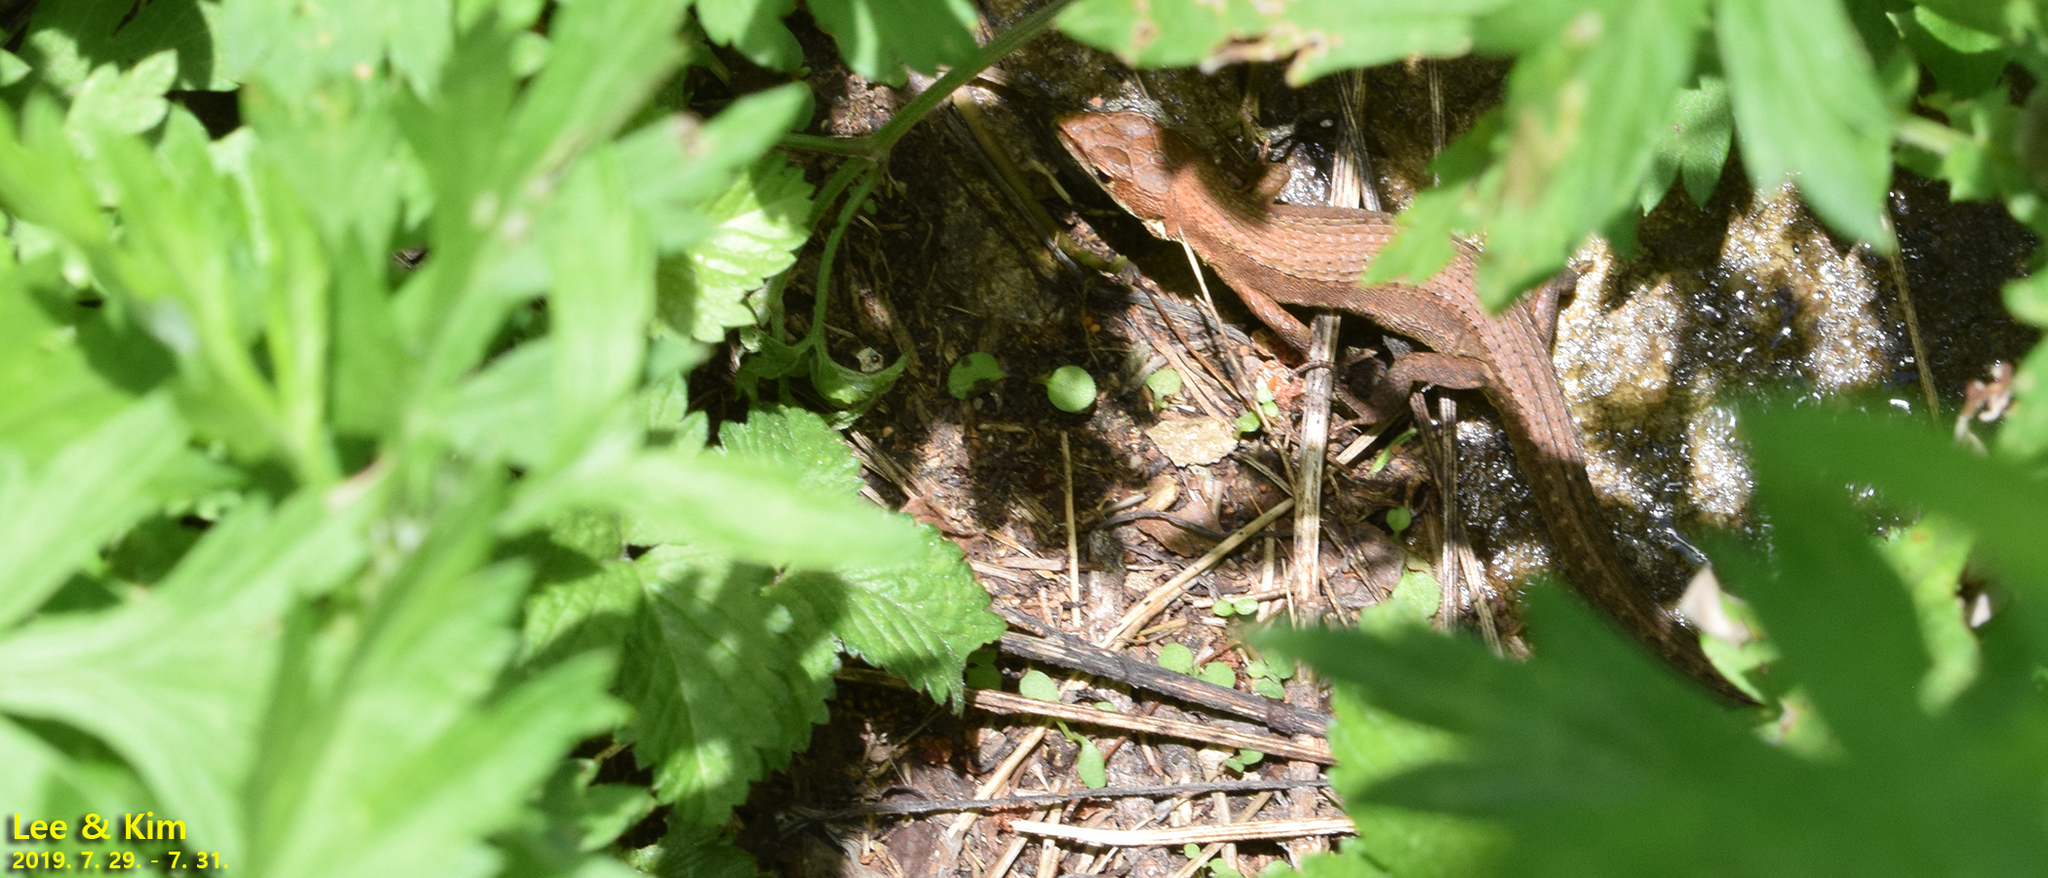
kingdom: Animalia
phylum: Chordata
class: Squamata
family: Lacertidae
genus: Takydromus
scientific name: Takydromus amurensis
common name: Amur grass lizard
